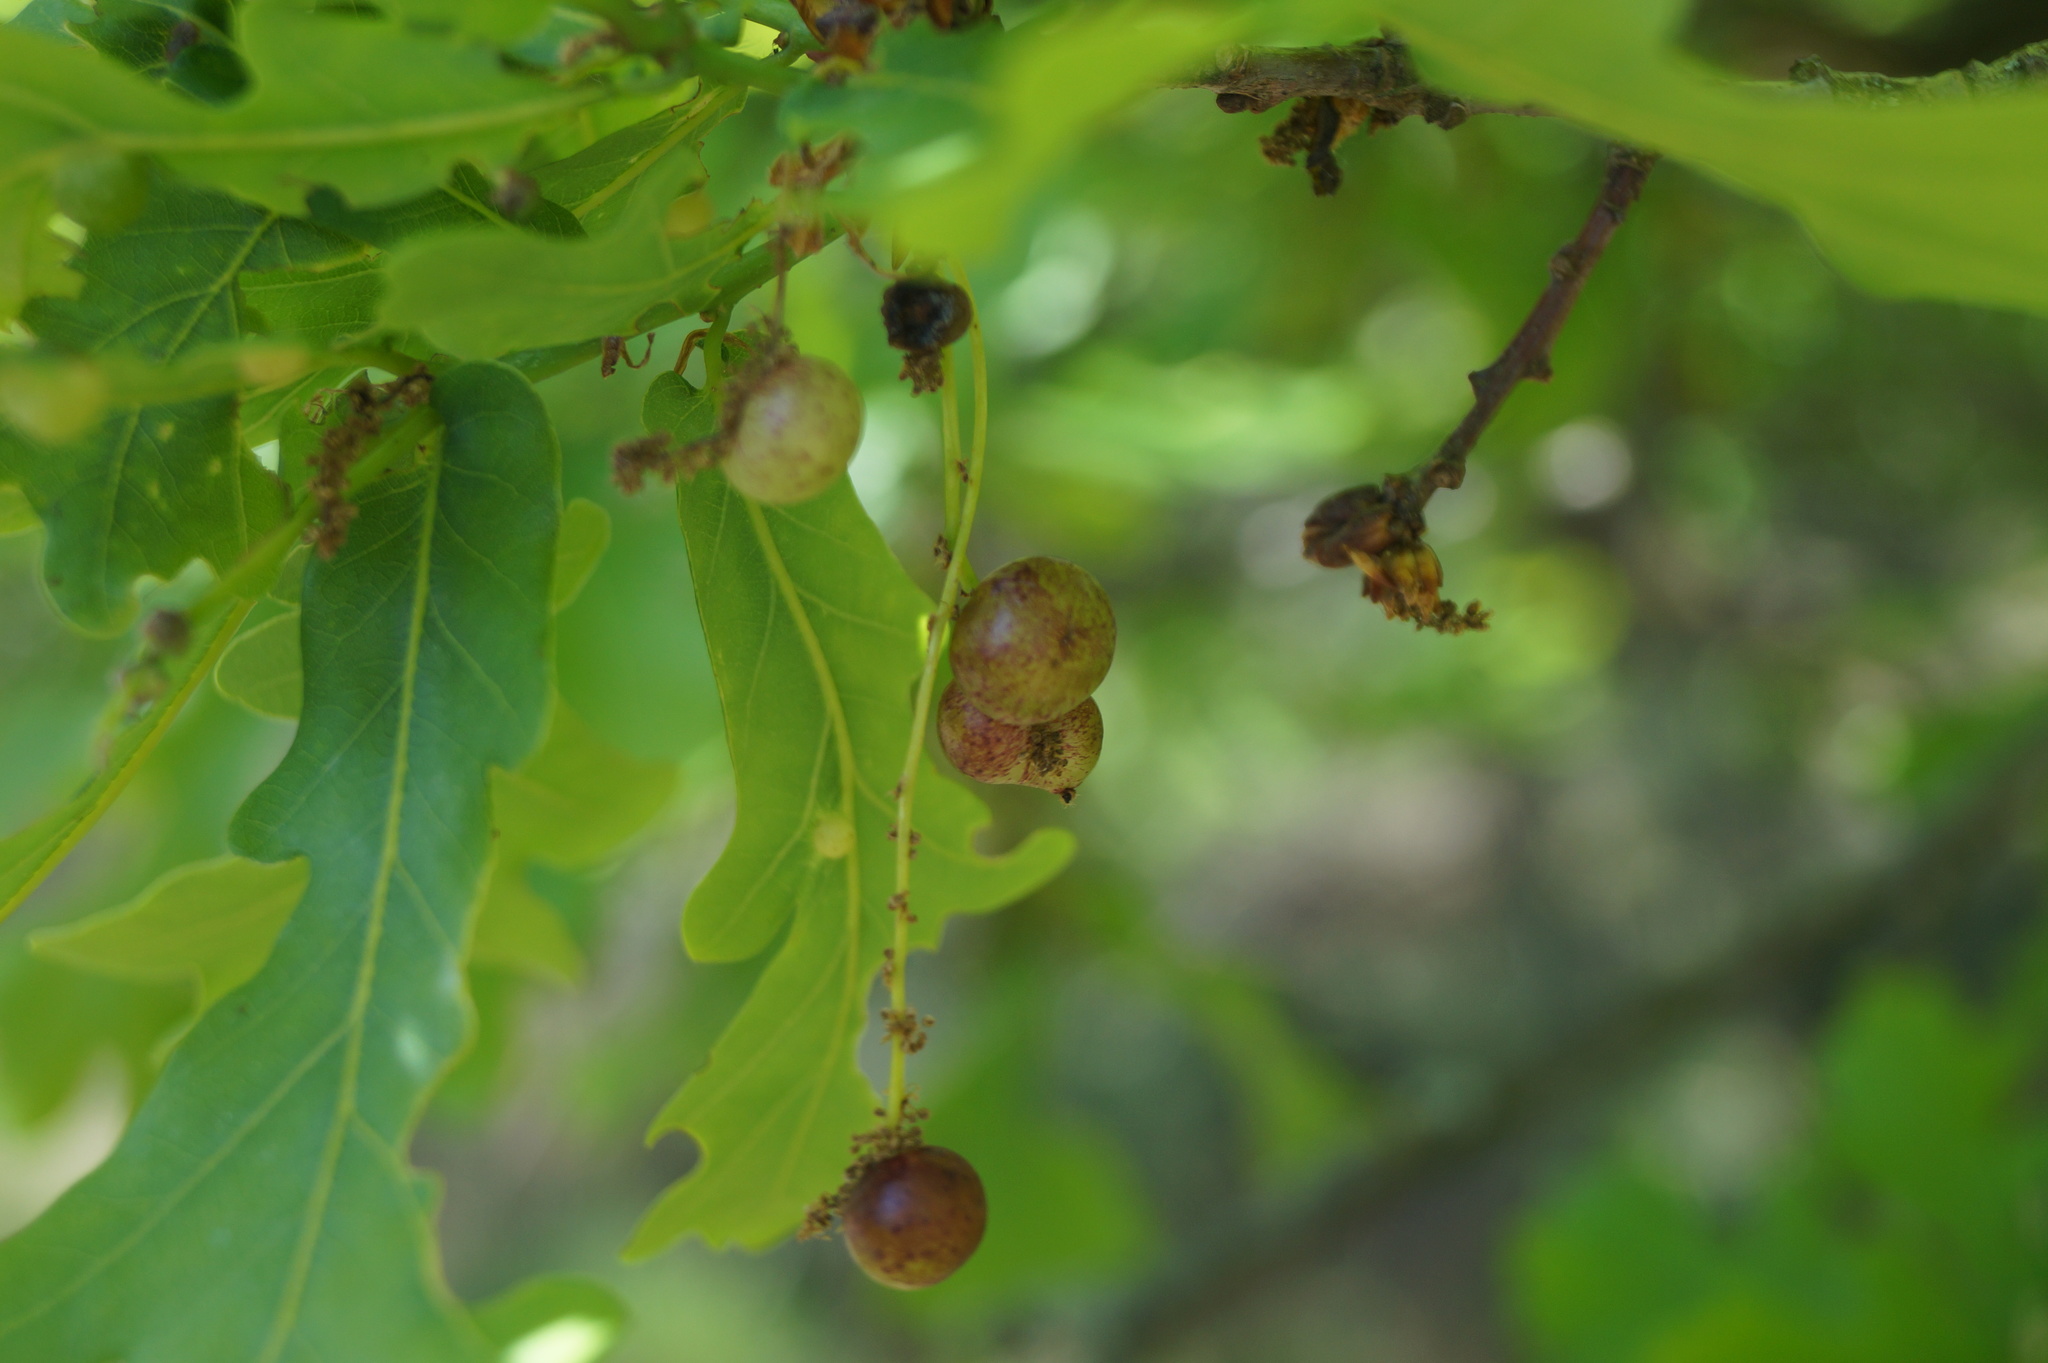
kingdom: Animalia
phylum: Arthropoda
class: Insecta
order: Hymenoptera
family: Cynipidae
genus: Neuroterus
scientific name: Neuroterus quercusbaccarum
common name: Common spangle gall
